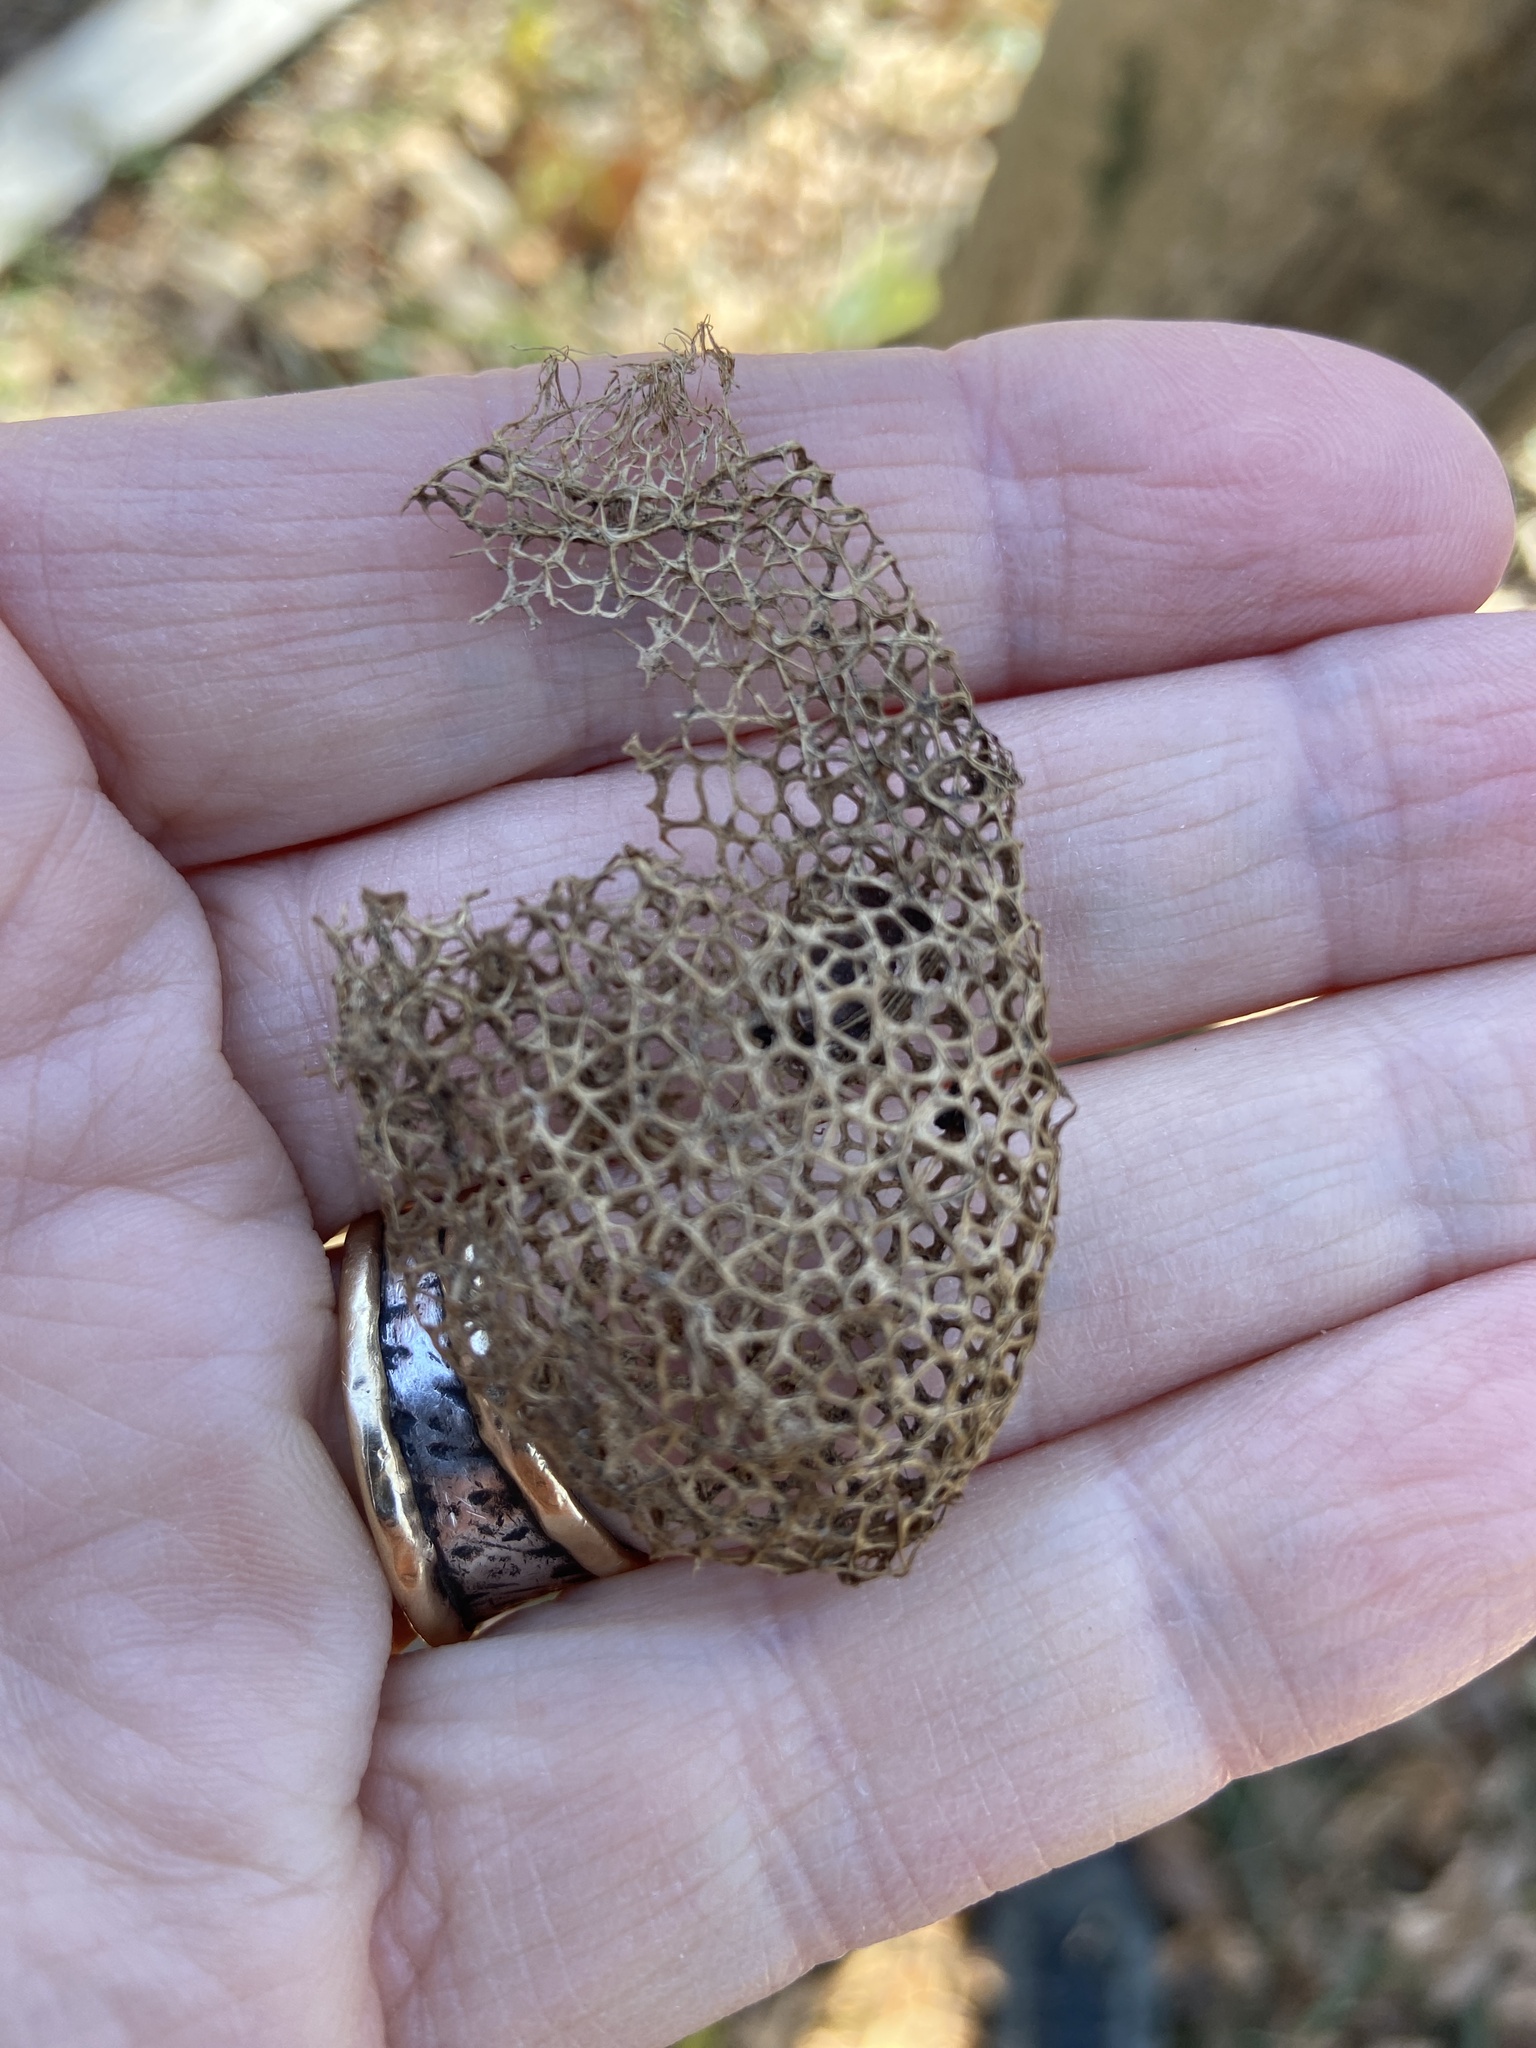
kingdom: Animalia
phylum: Arthropoda
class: Insecta
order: Lepidoptera
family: Saturniidae
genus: Saturnia
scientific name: Saturnia japonica
